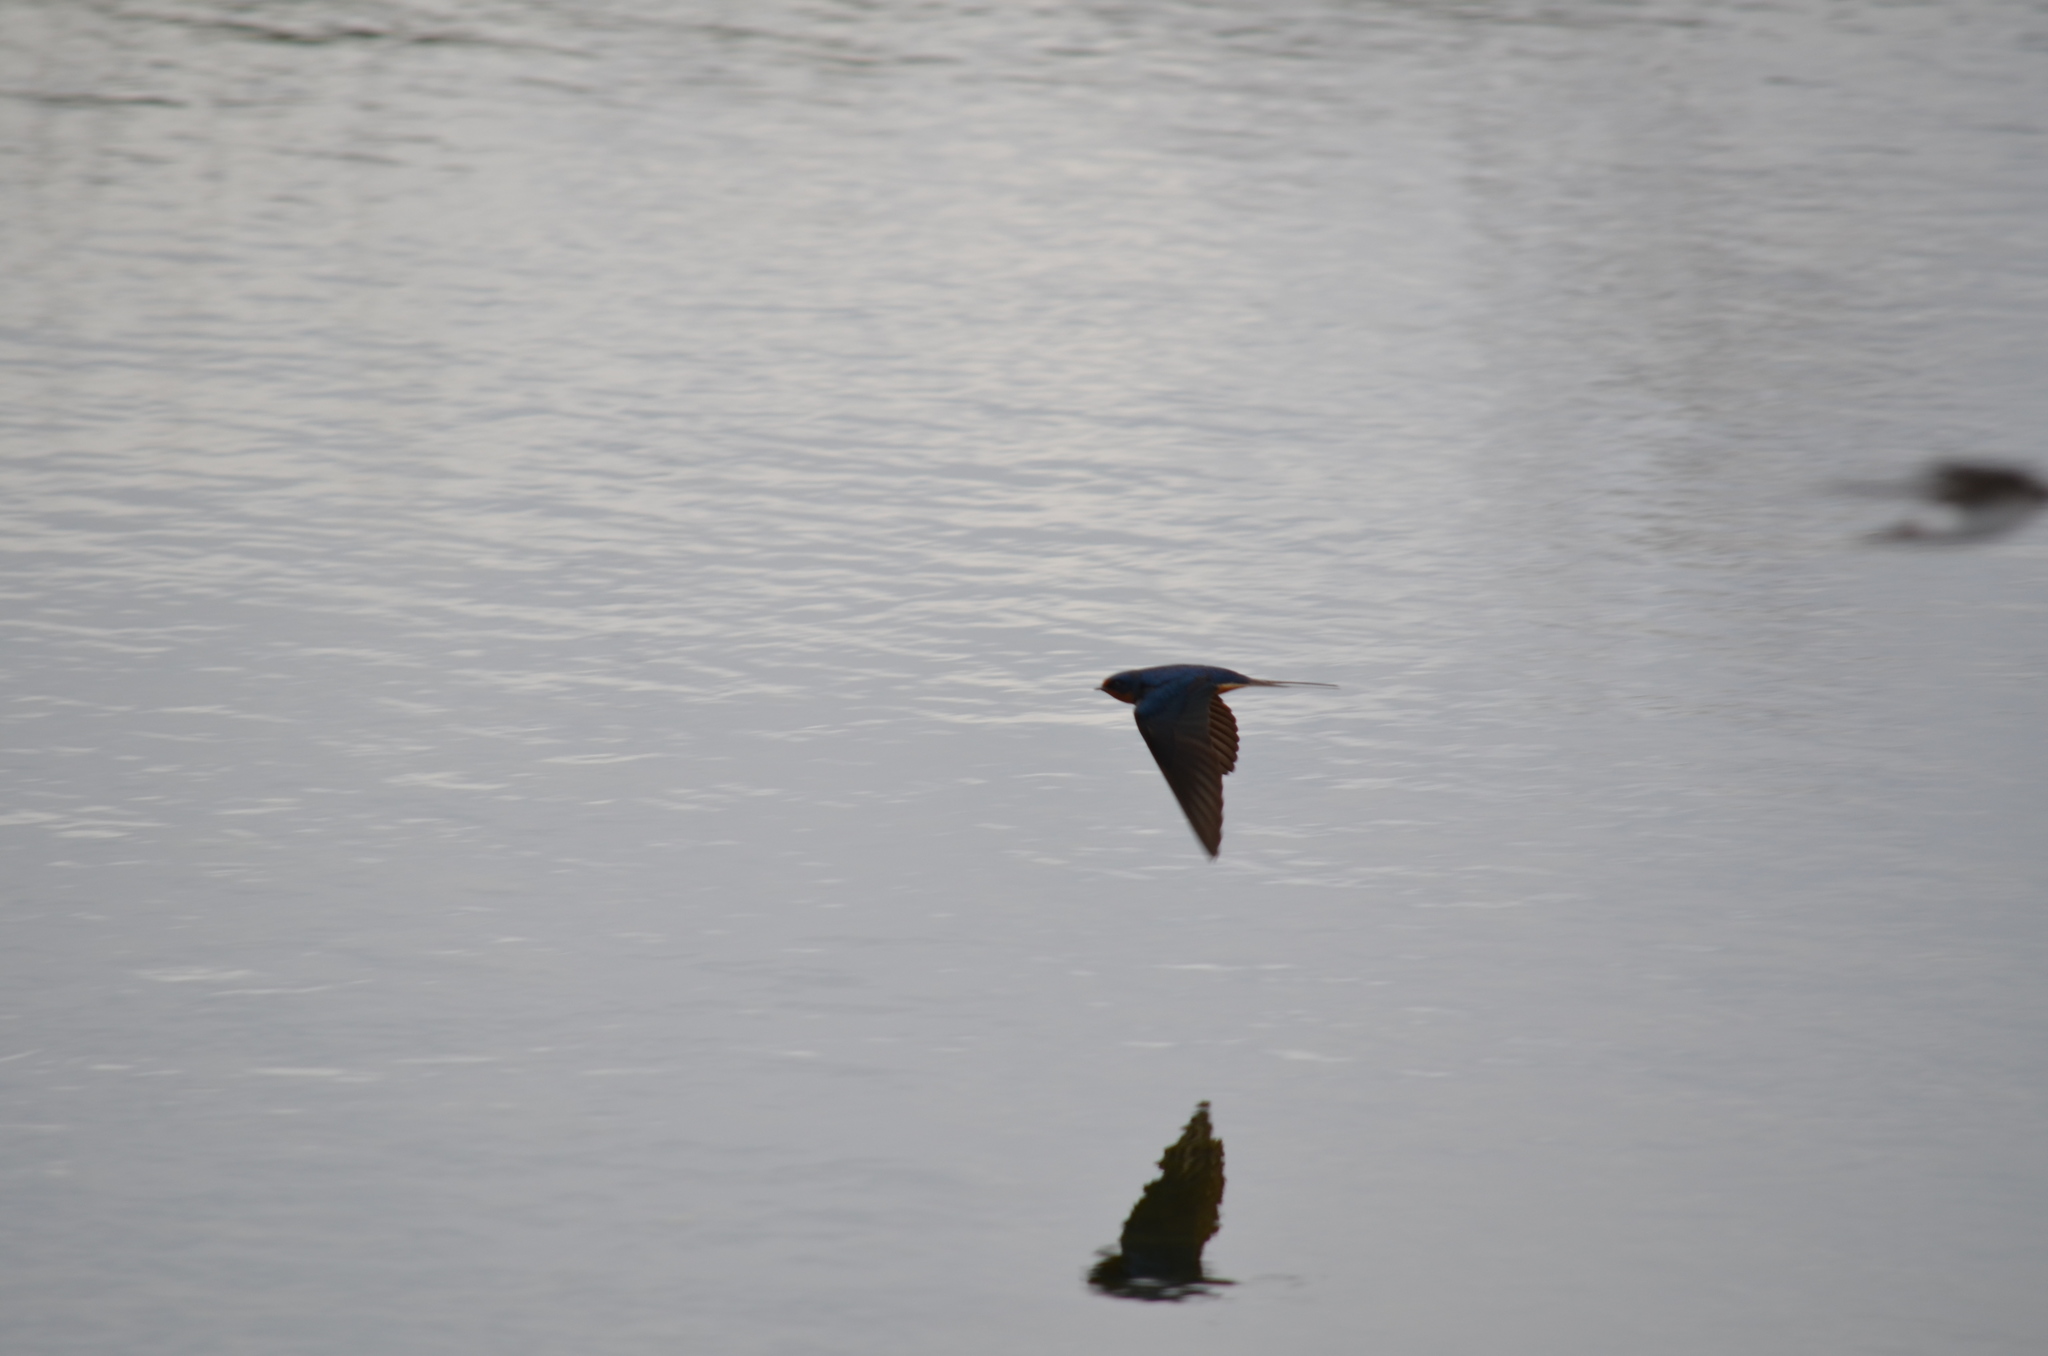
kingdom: Animalia
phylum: Chordata
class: Aves
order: Passeriformes
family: Hirundinidae
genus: Hirundo
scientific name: Hirundo rustica
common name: Barn swallow
